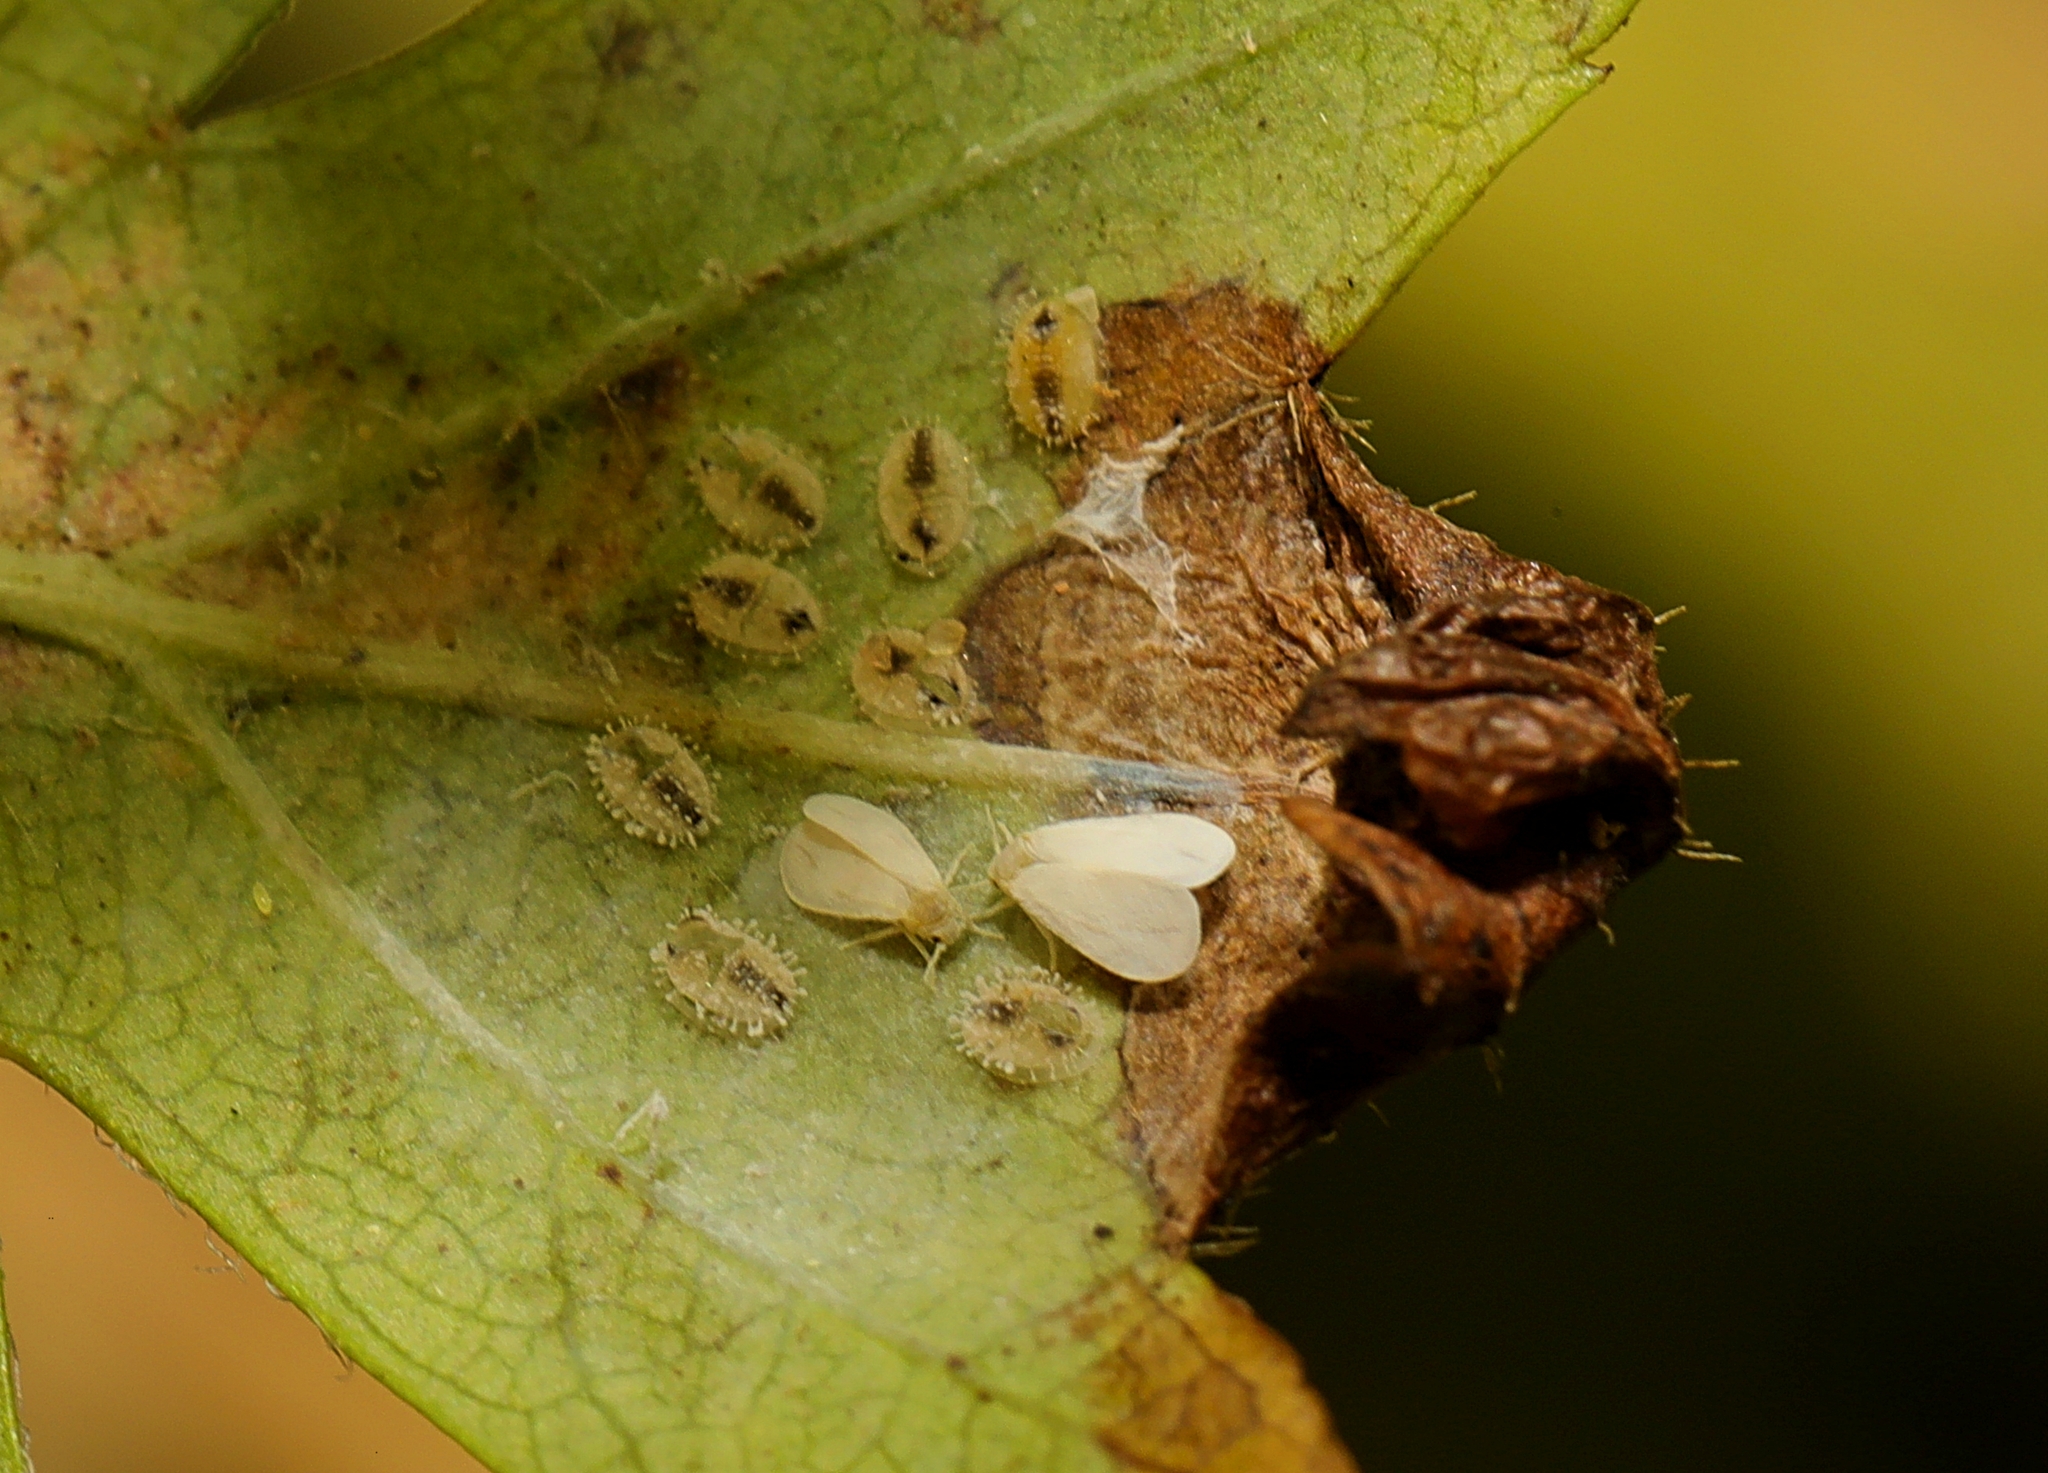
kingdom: Animalia
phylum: Arthropoda
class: Insecta
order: Hemiptera
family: Aleyrodidae
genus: Siphoninus
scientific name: Siphoninus phillyreae
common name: Ash whitefly
